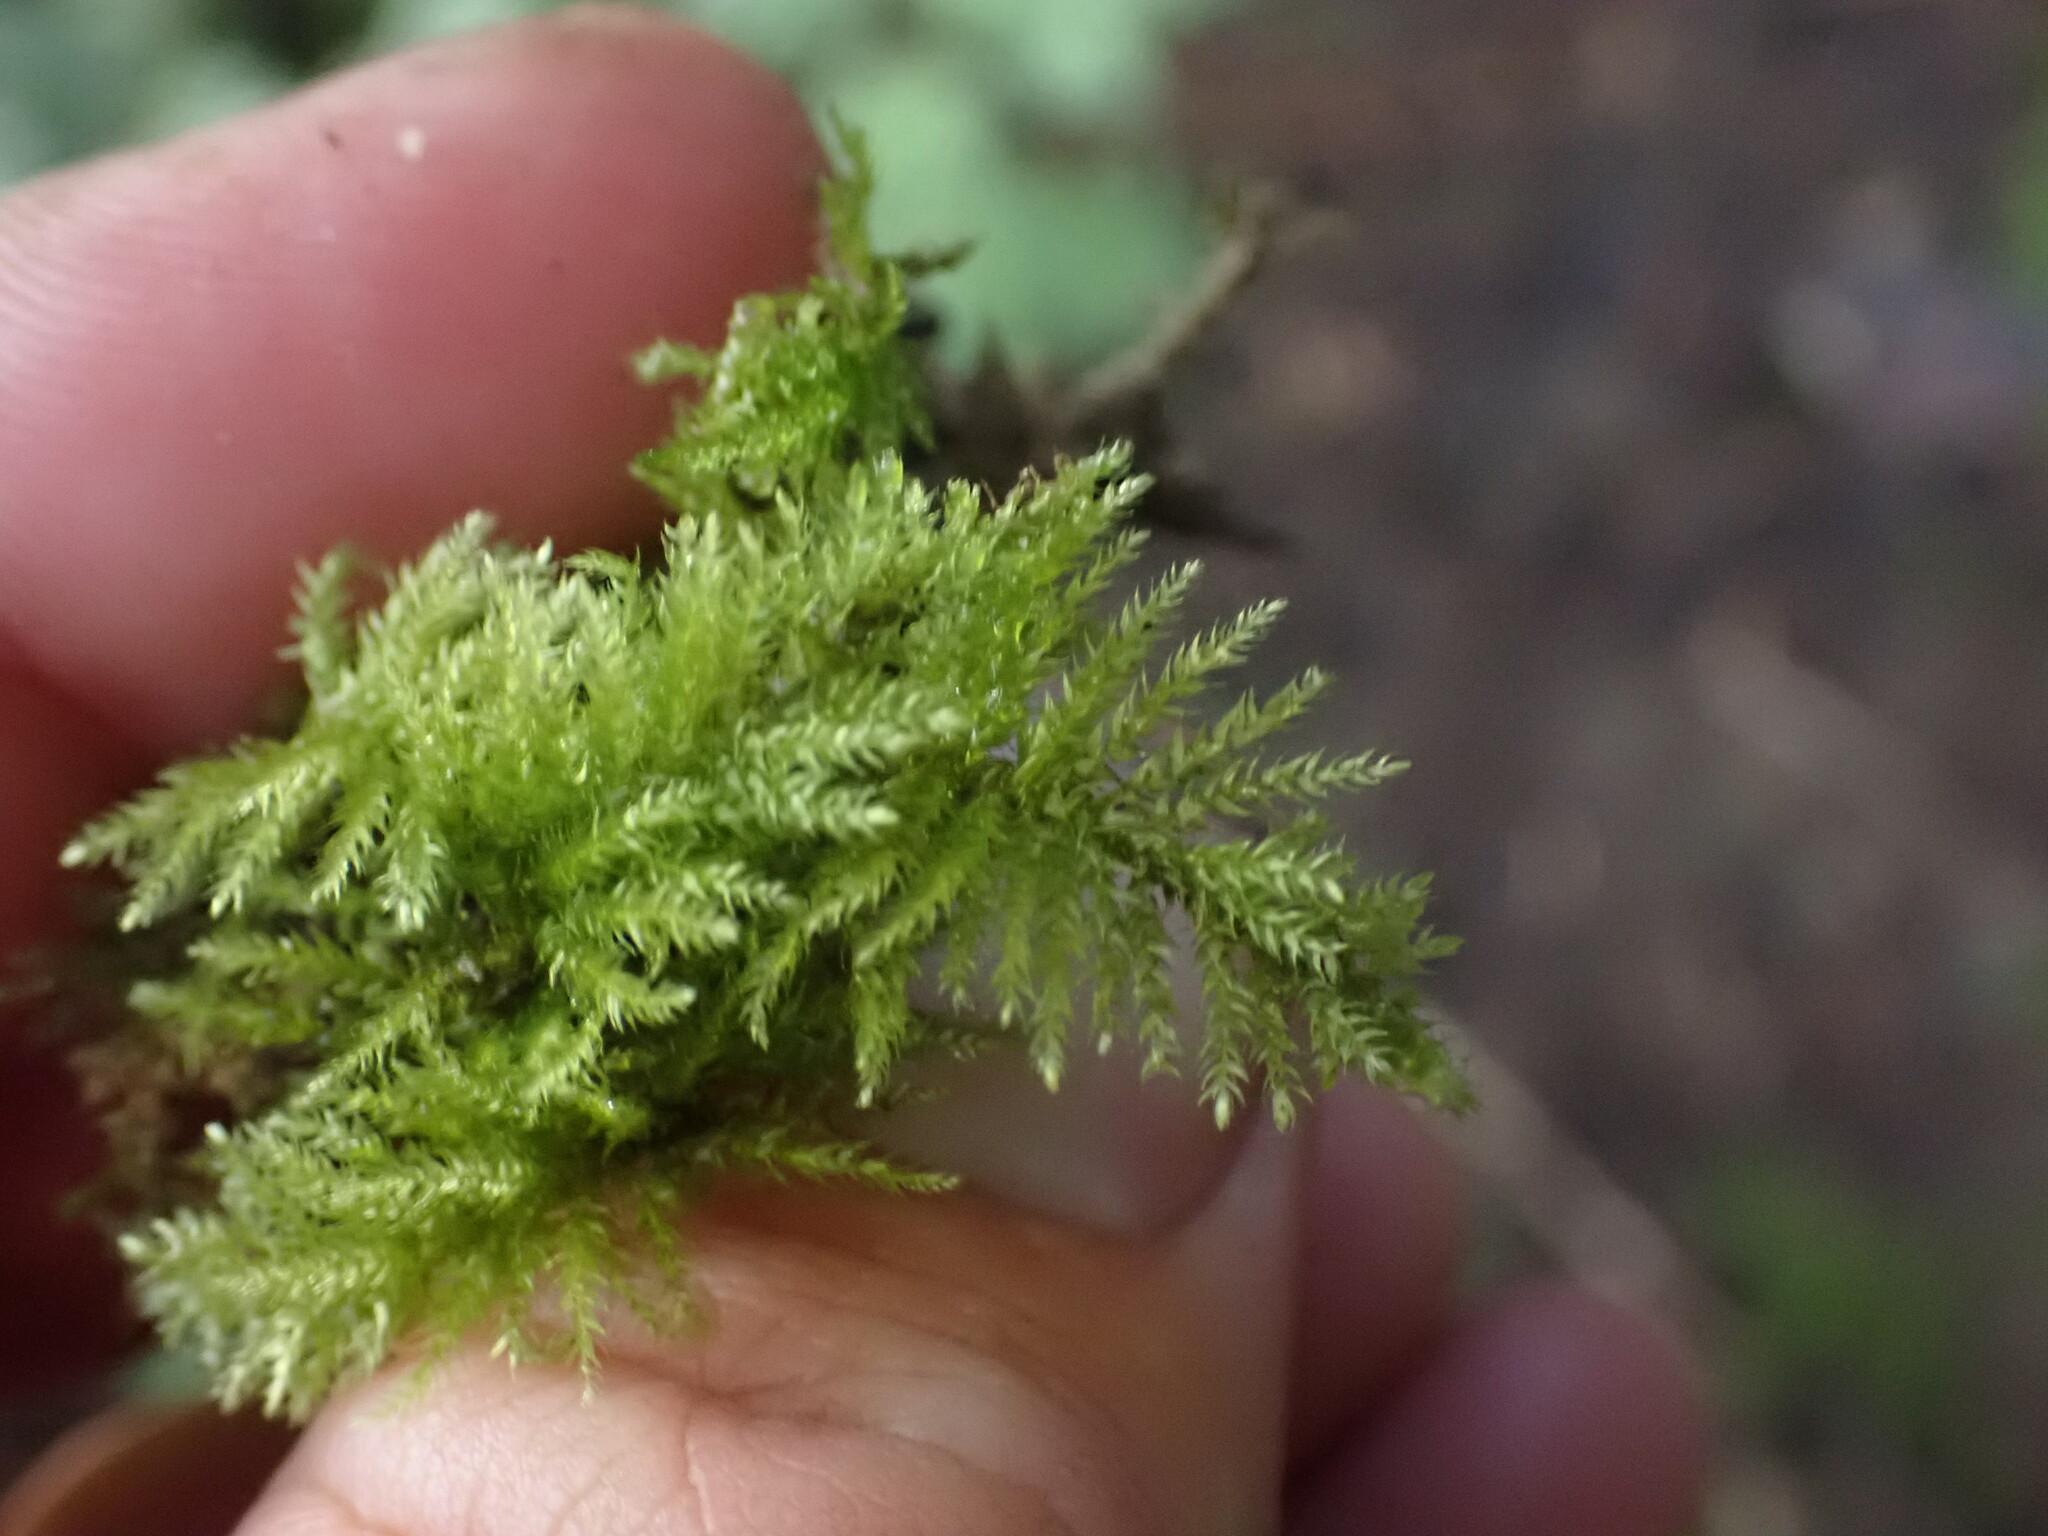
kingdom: Plantae
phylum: Bryophyta
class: Bryopsida
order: Hypnales
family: Brachytheciaceae
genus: Kindbergia
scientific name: Kindbergia praelonga
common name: Slender beaked moss
